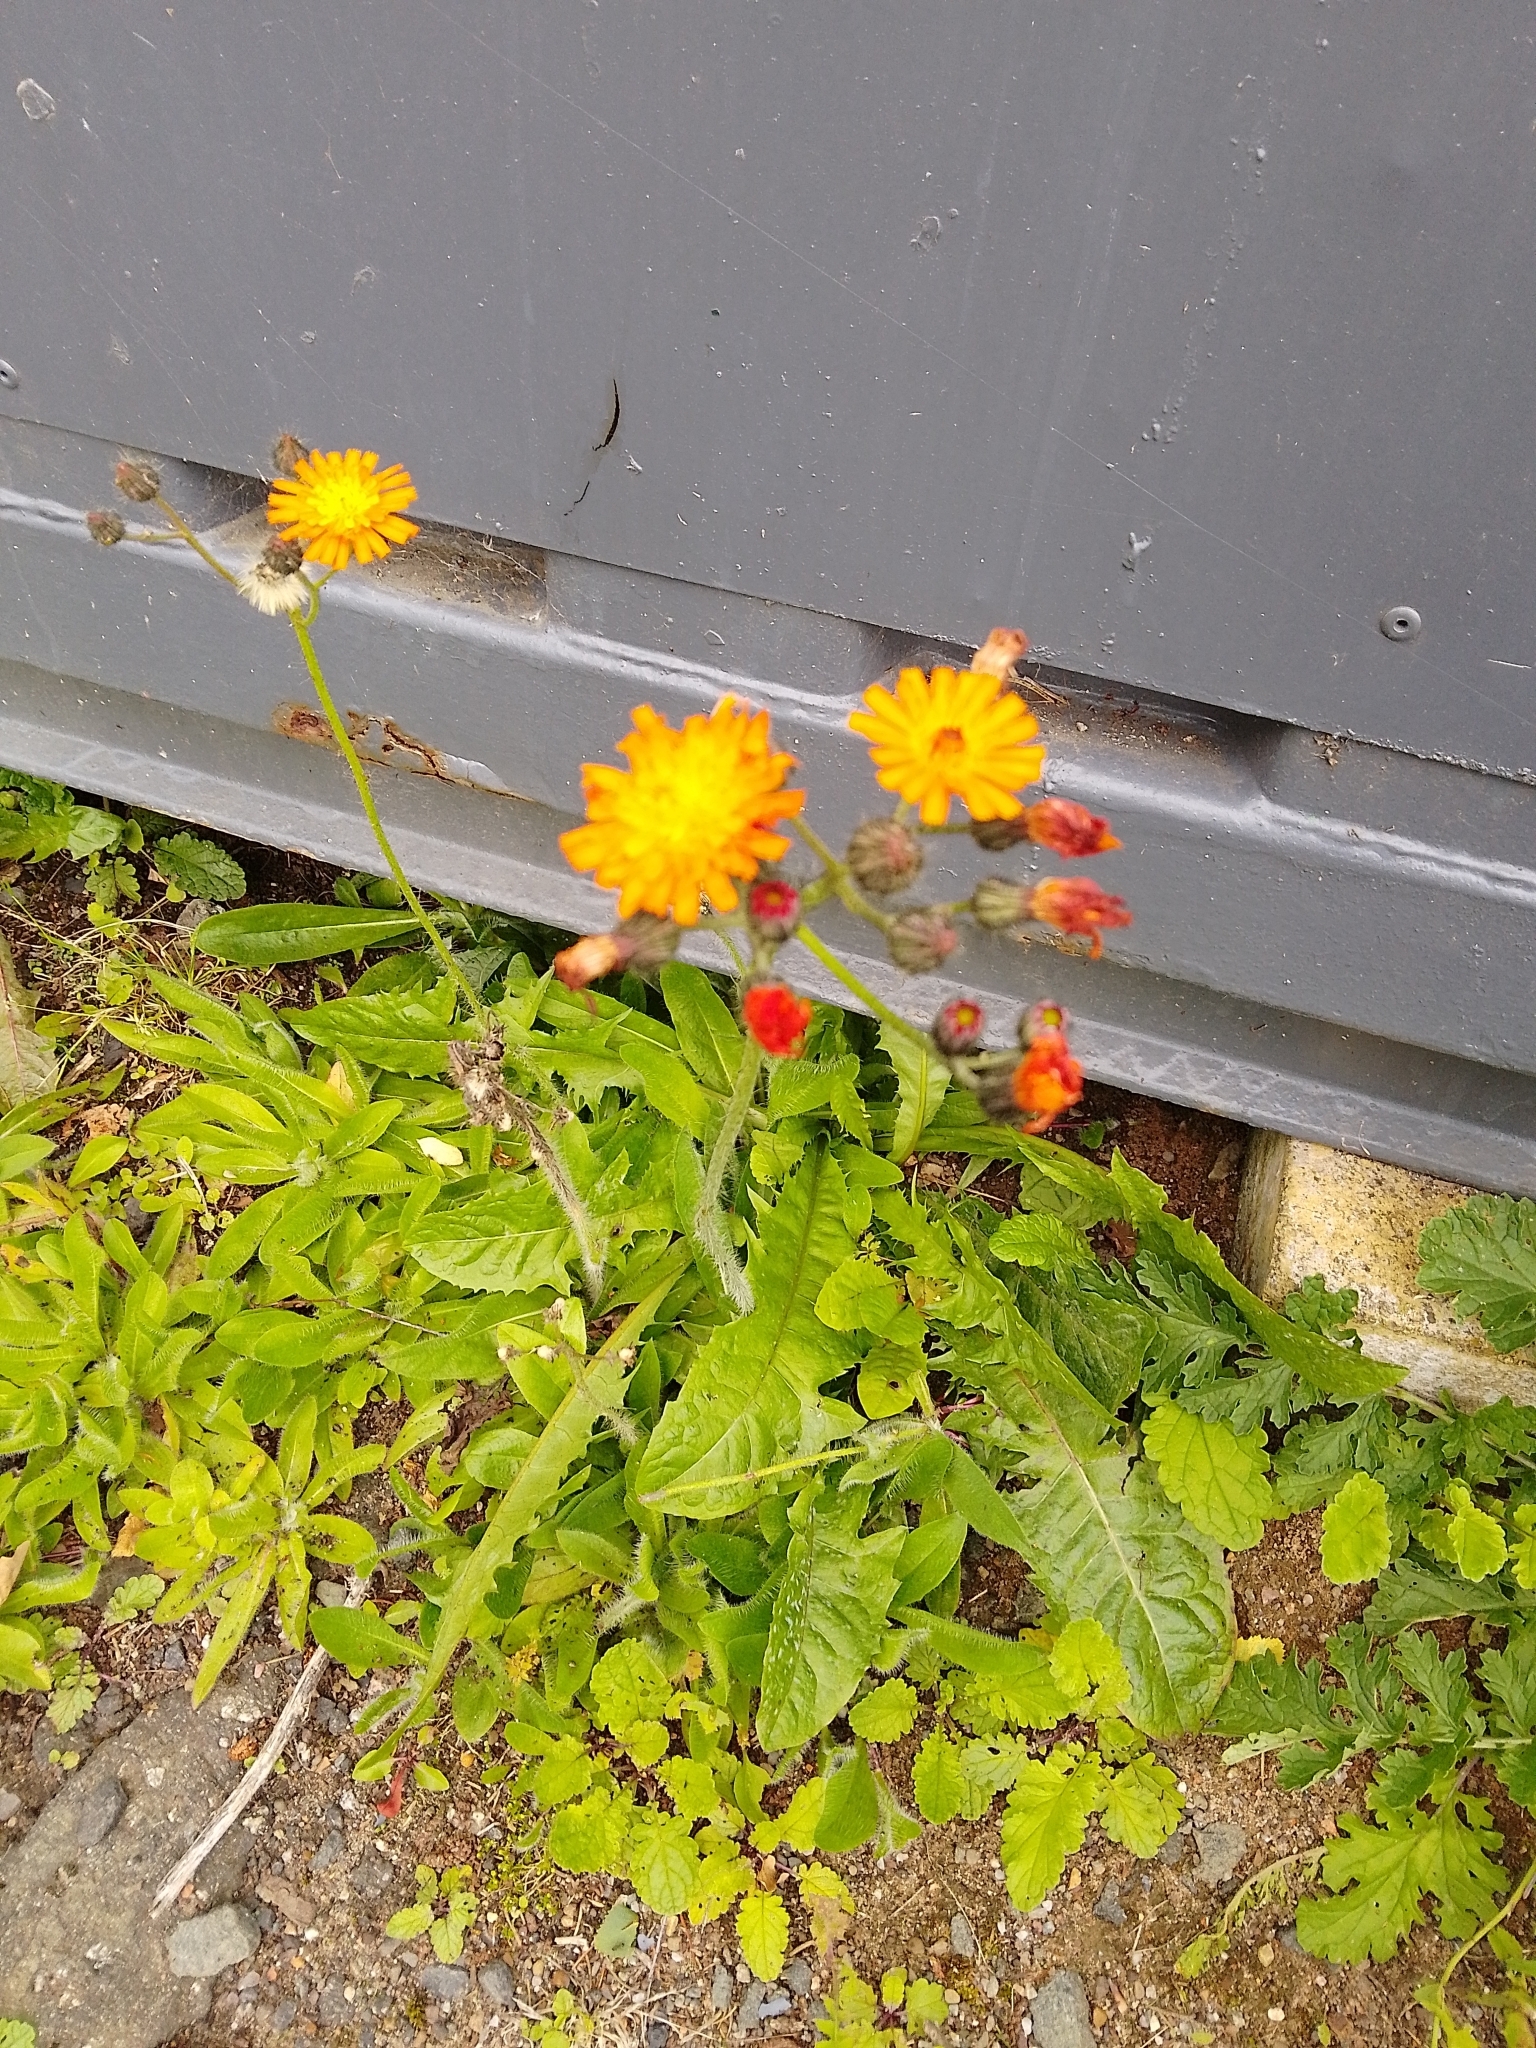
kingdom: Plantae
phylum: Tracheophyta
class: Magnoliopsida
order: Asterales
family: Asteraceae
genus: Pilosella
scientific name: Pilosella aurantiaca
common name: Fox-and-cubs
